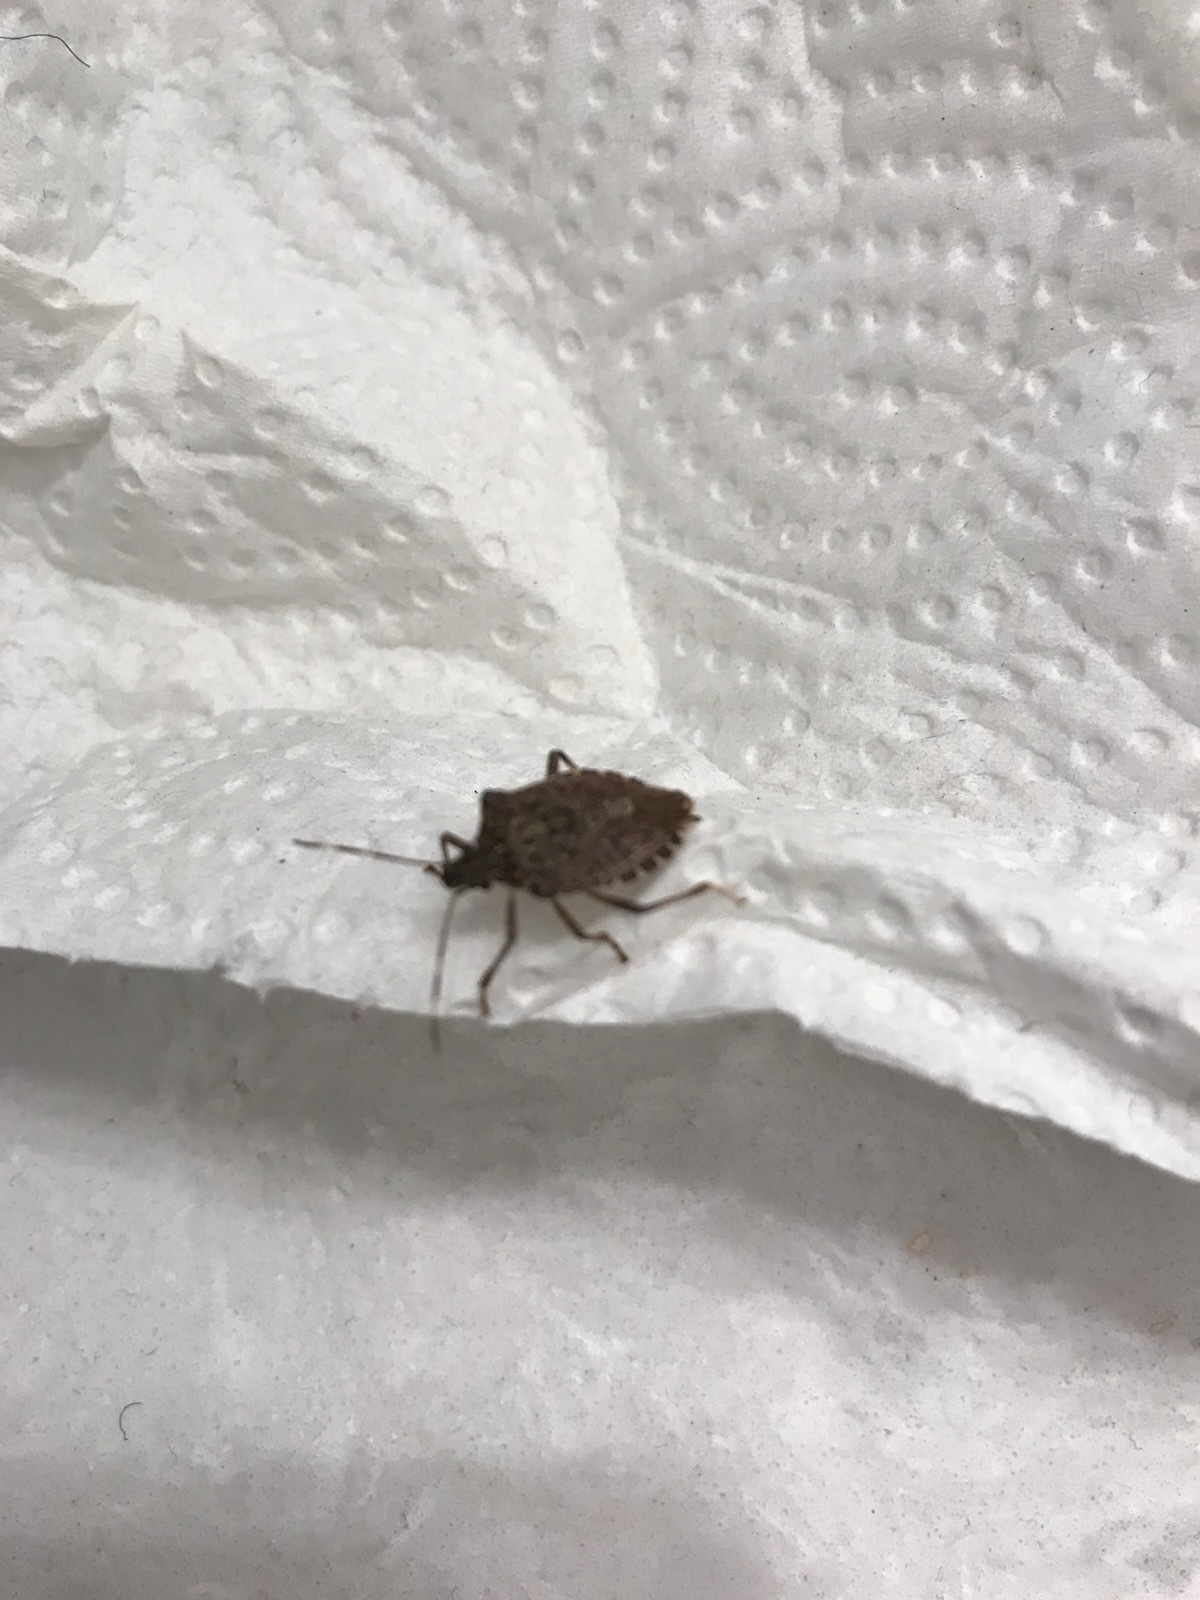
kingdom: Animalia
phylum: Arthropoda
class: Insecta
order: Hemiptera
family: Pentatomidae
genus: Halyomorpha
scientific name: Halyomorpha halys
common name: Brown marmorated stink bug
